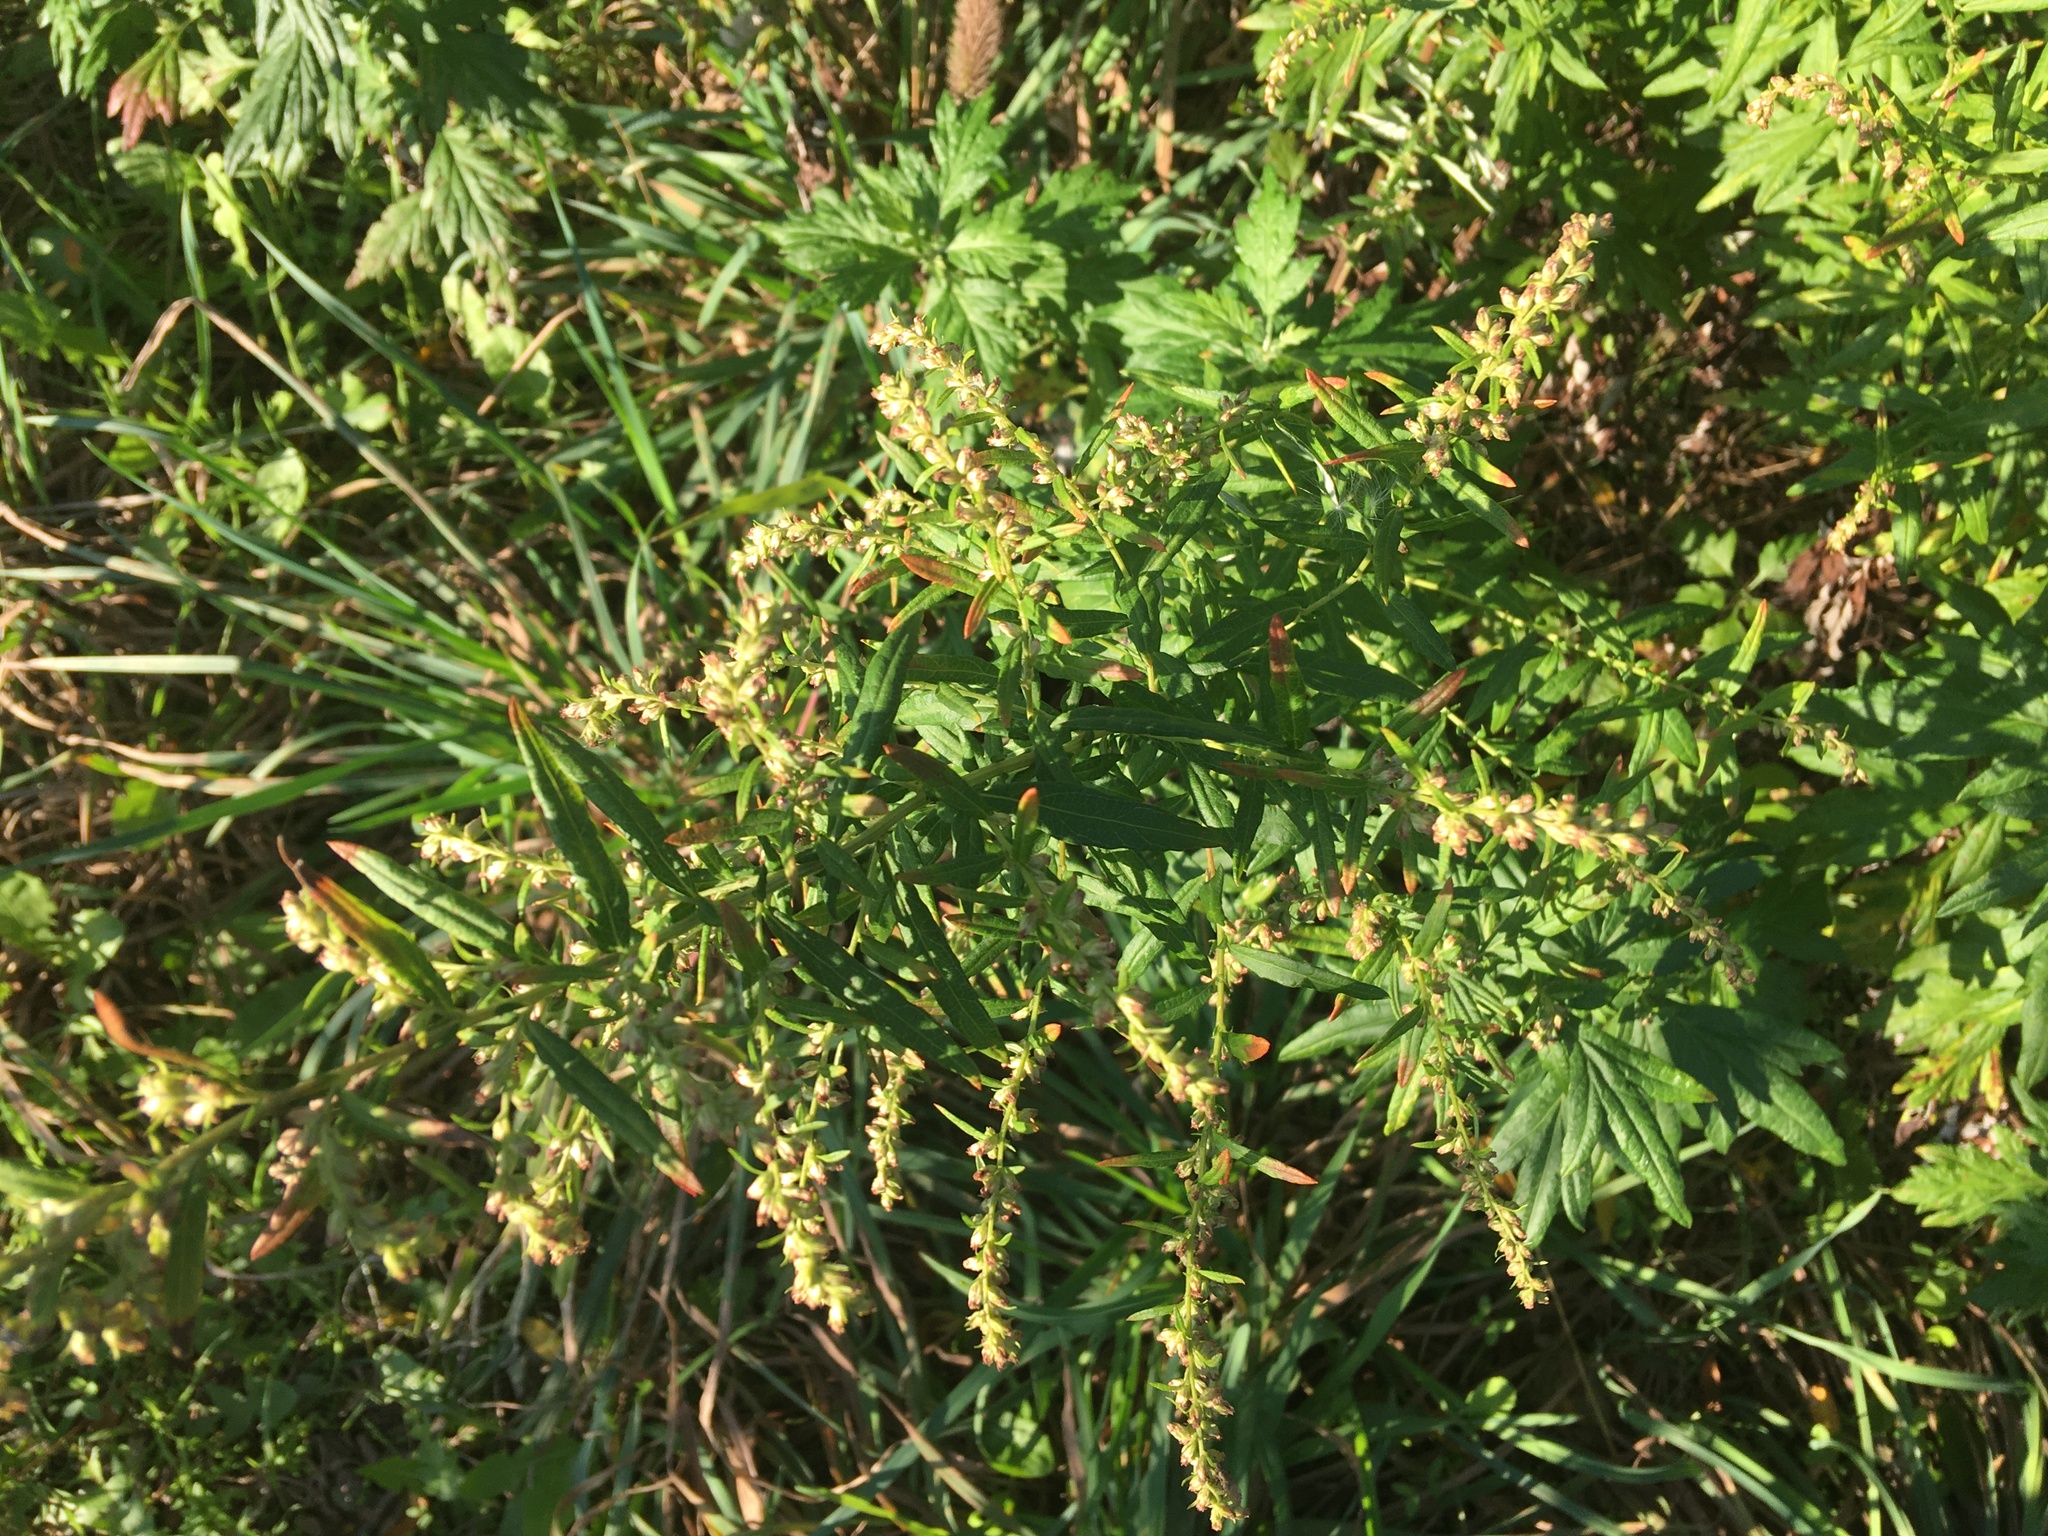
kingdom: Plantae
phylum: Tracheophyta
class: Magnoliopsida
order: Asterales
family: Asteraceae
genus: Artemisia
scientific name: Artemisia vulgaris
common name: Mugwort
